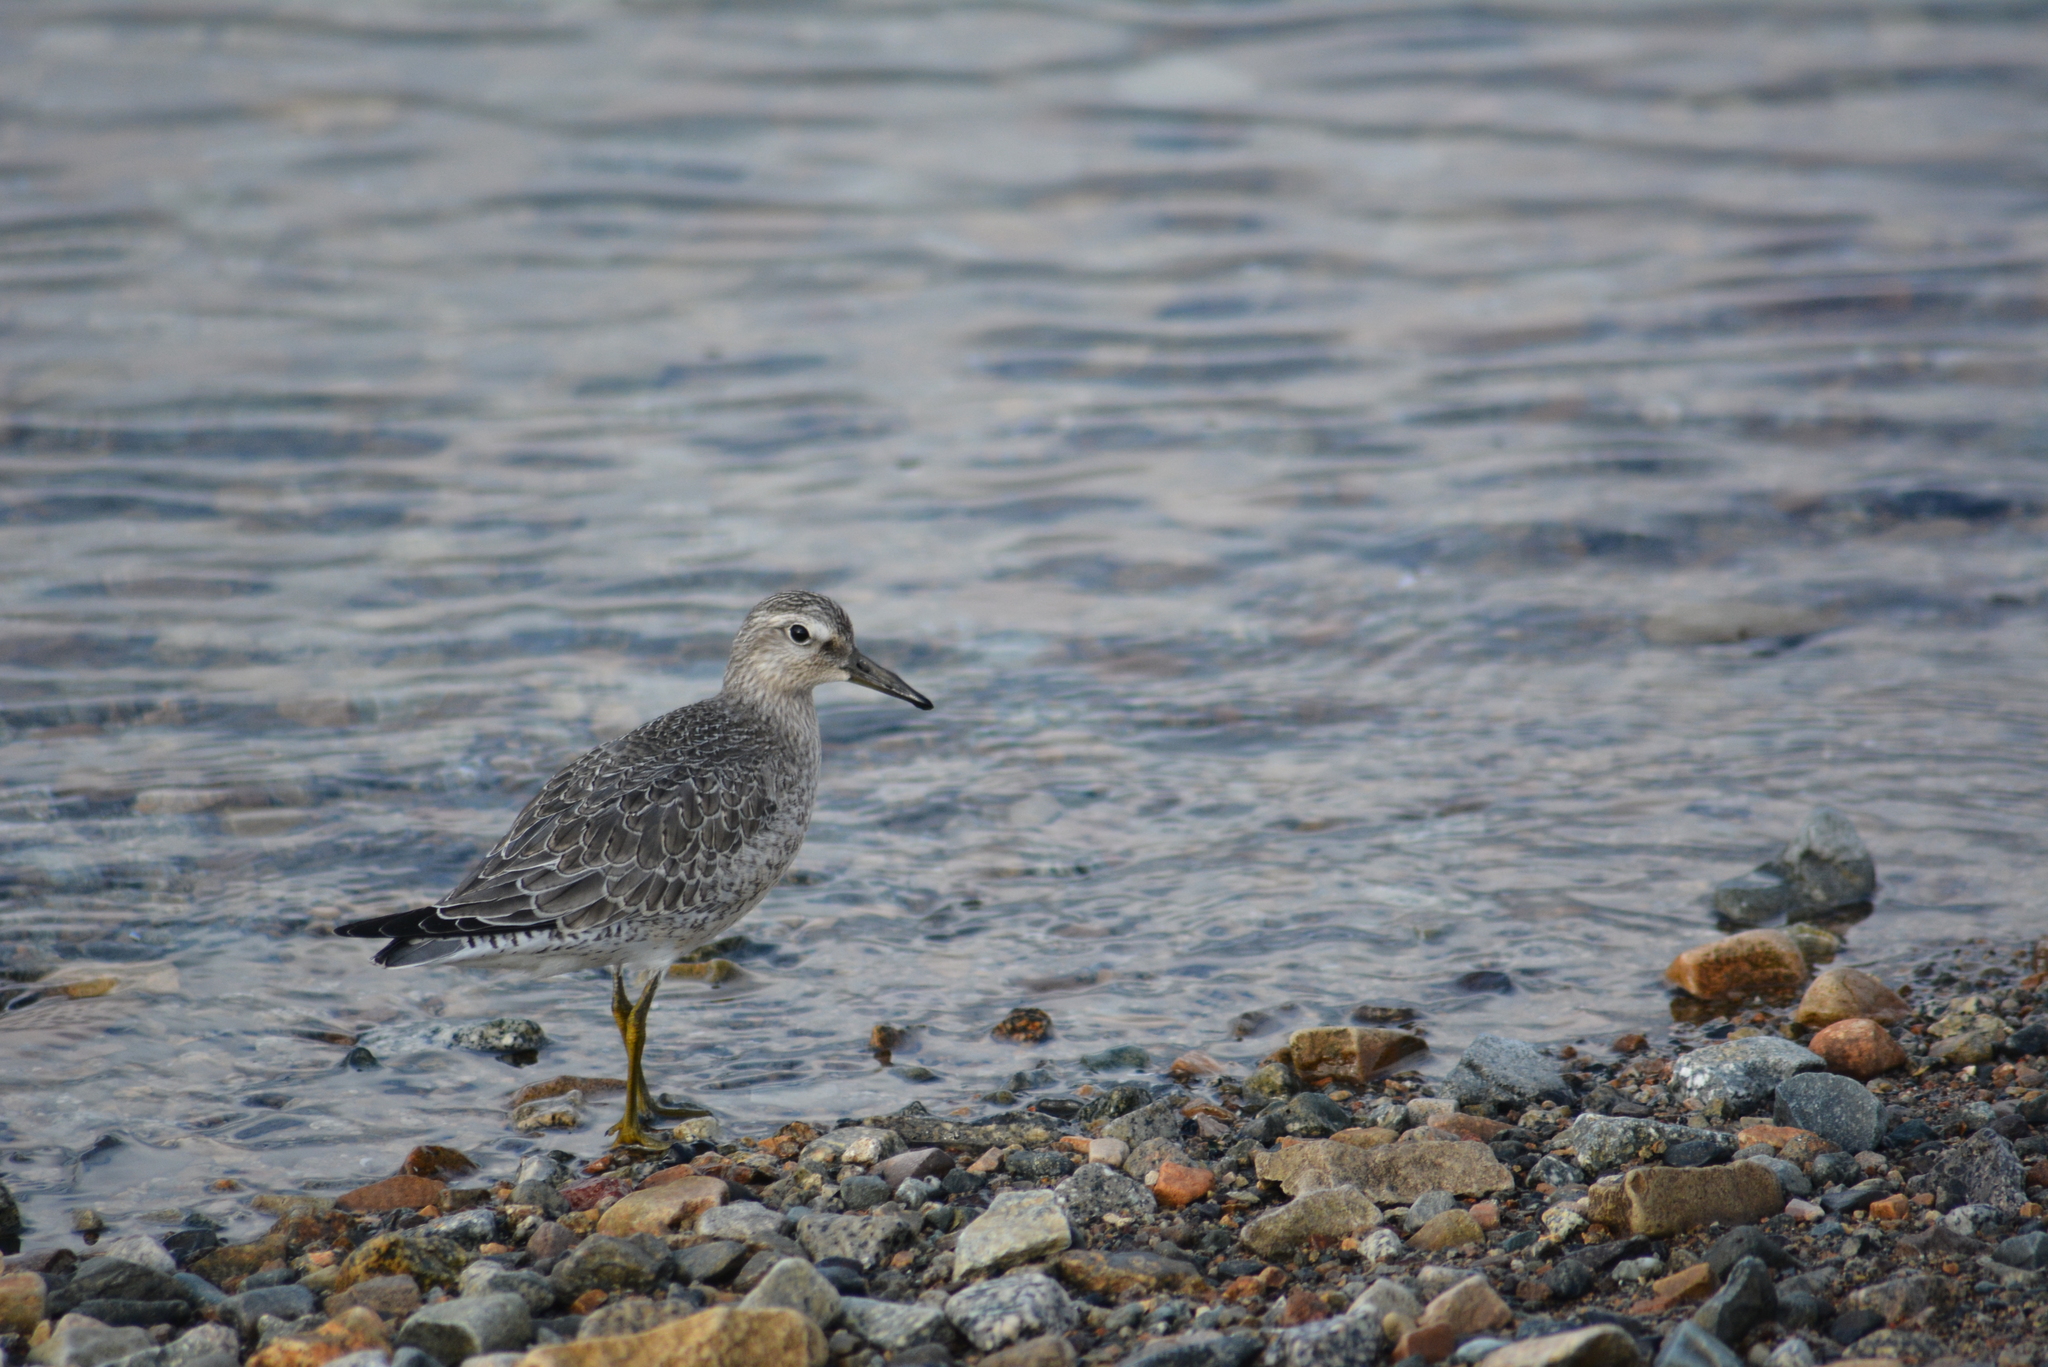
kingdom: Animalia
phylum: Chordata
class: Aves
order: Charadriiformes
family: Scolopacidae
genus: Calidris
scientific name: Calidris canutus
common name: Red knot
